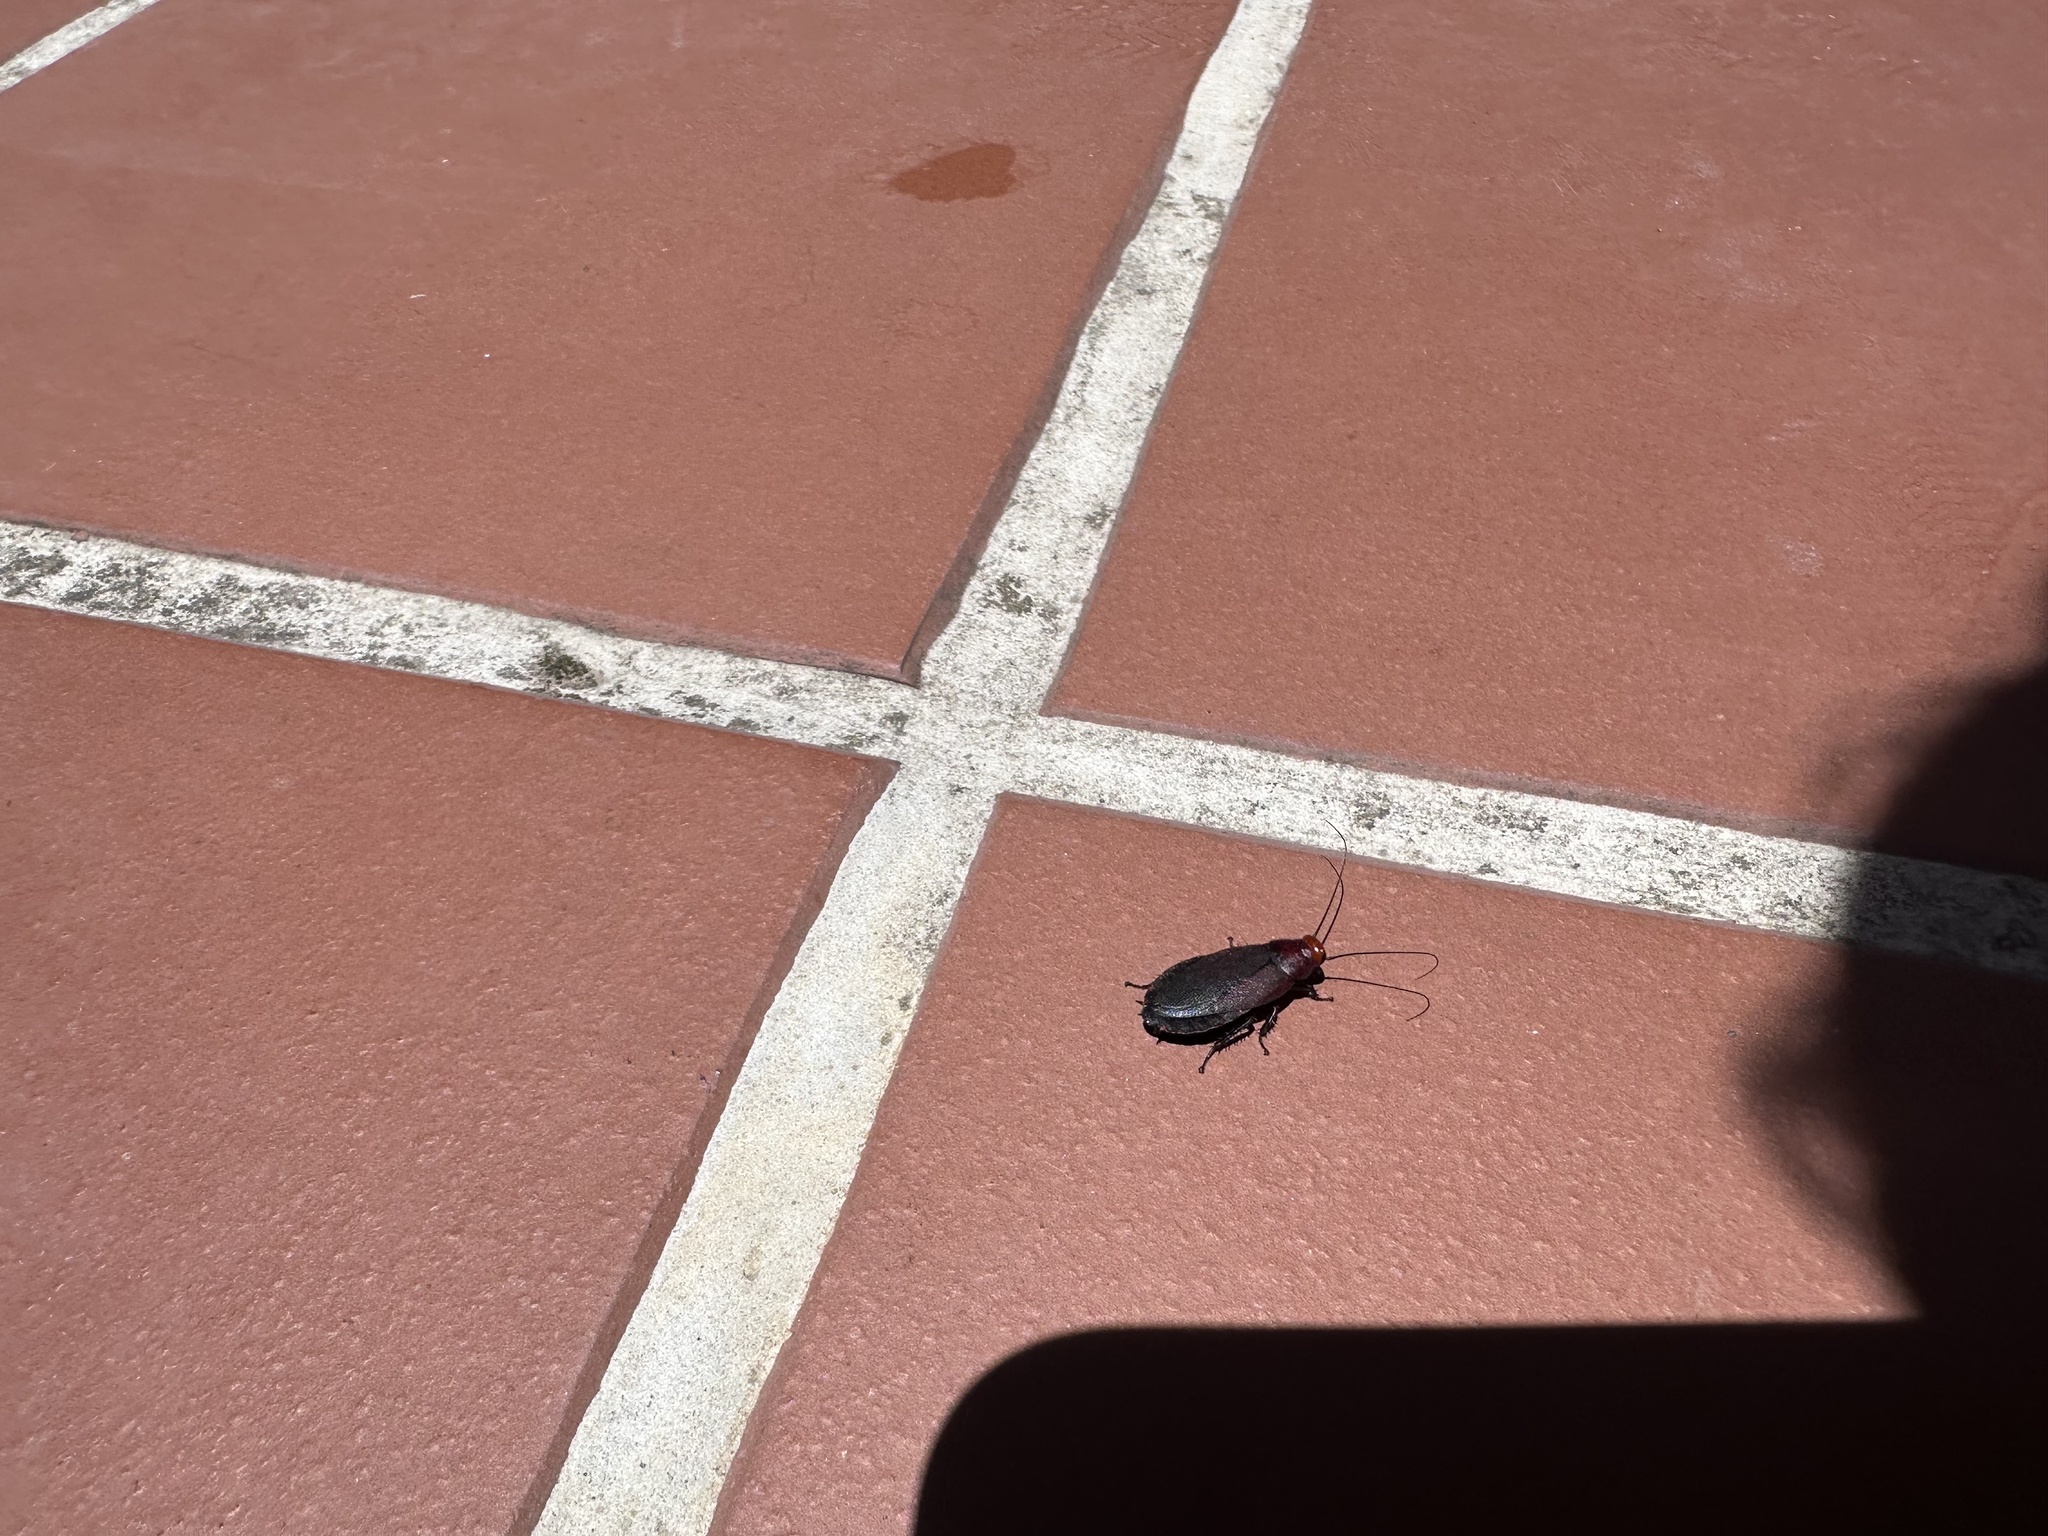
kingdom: Animalia
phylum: Arthropoda
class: Insecta
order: Blattodea
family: Blattidae
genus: Deropeltis
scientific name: Deropeltis erythrocephala
